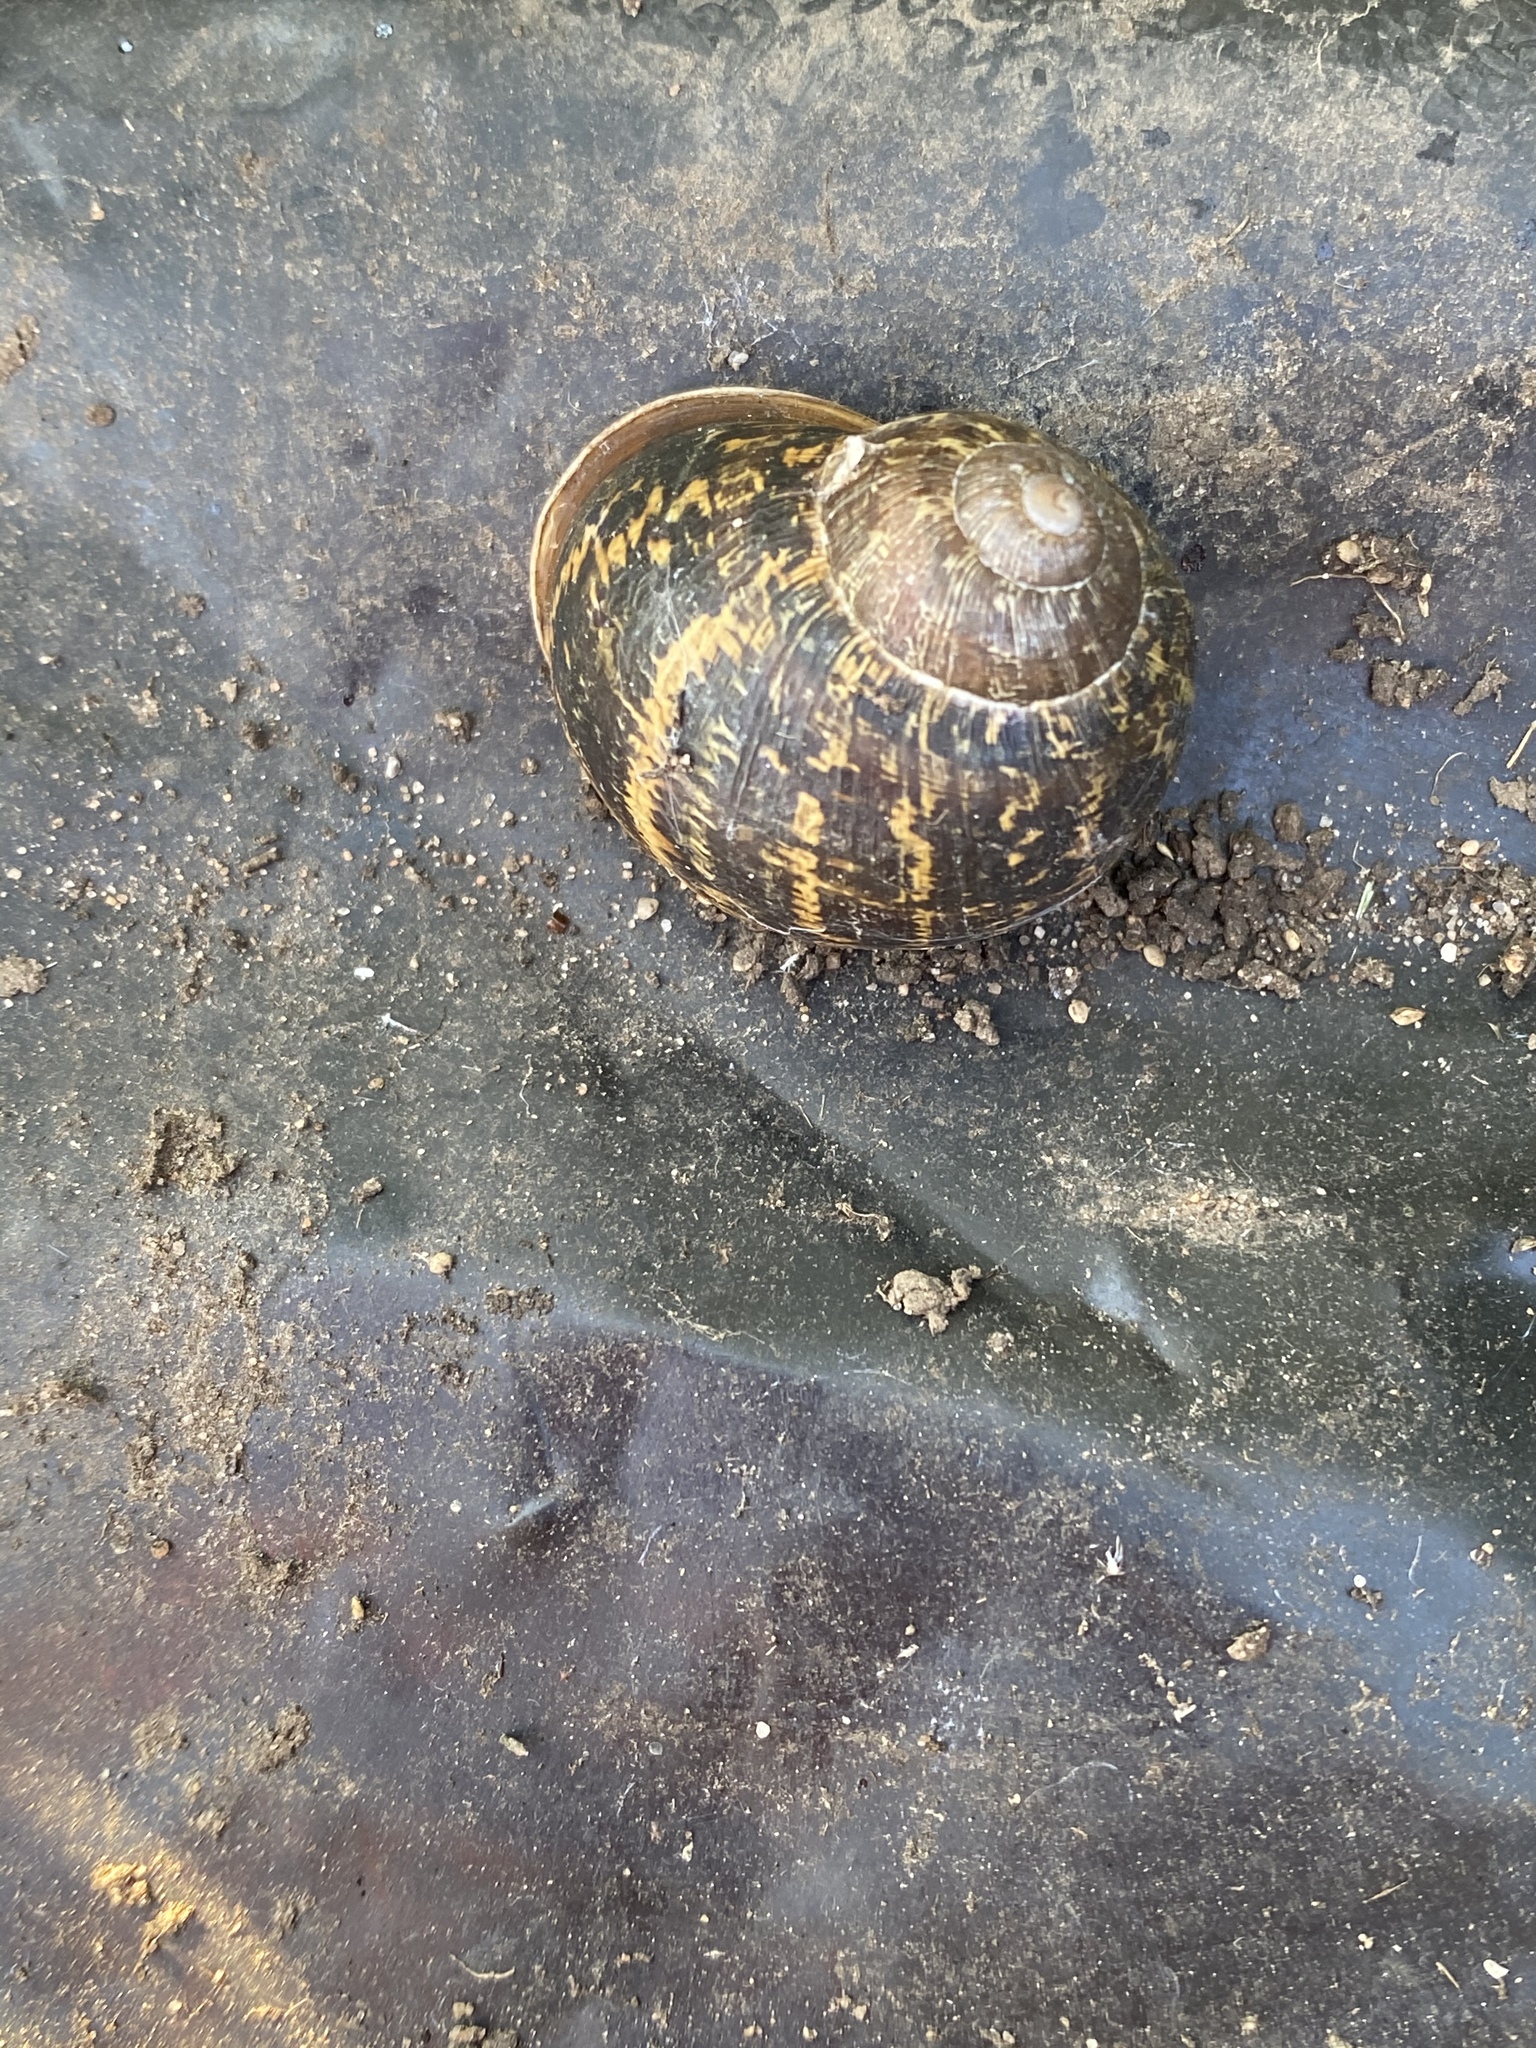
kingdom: Animalia
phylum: Mollusca
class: Gastropoda
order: Stylommatophora
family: Helicidae
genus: Cornu
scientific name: Cornu aspersum
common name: Brown garden snail
